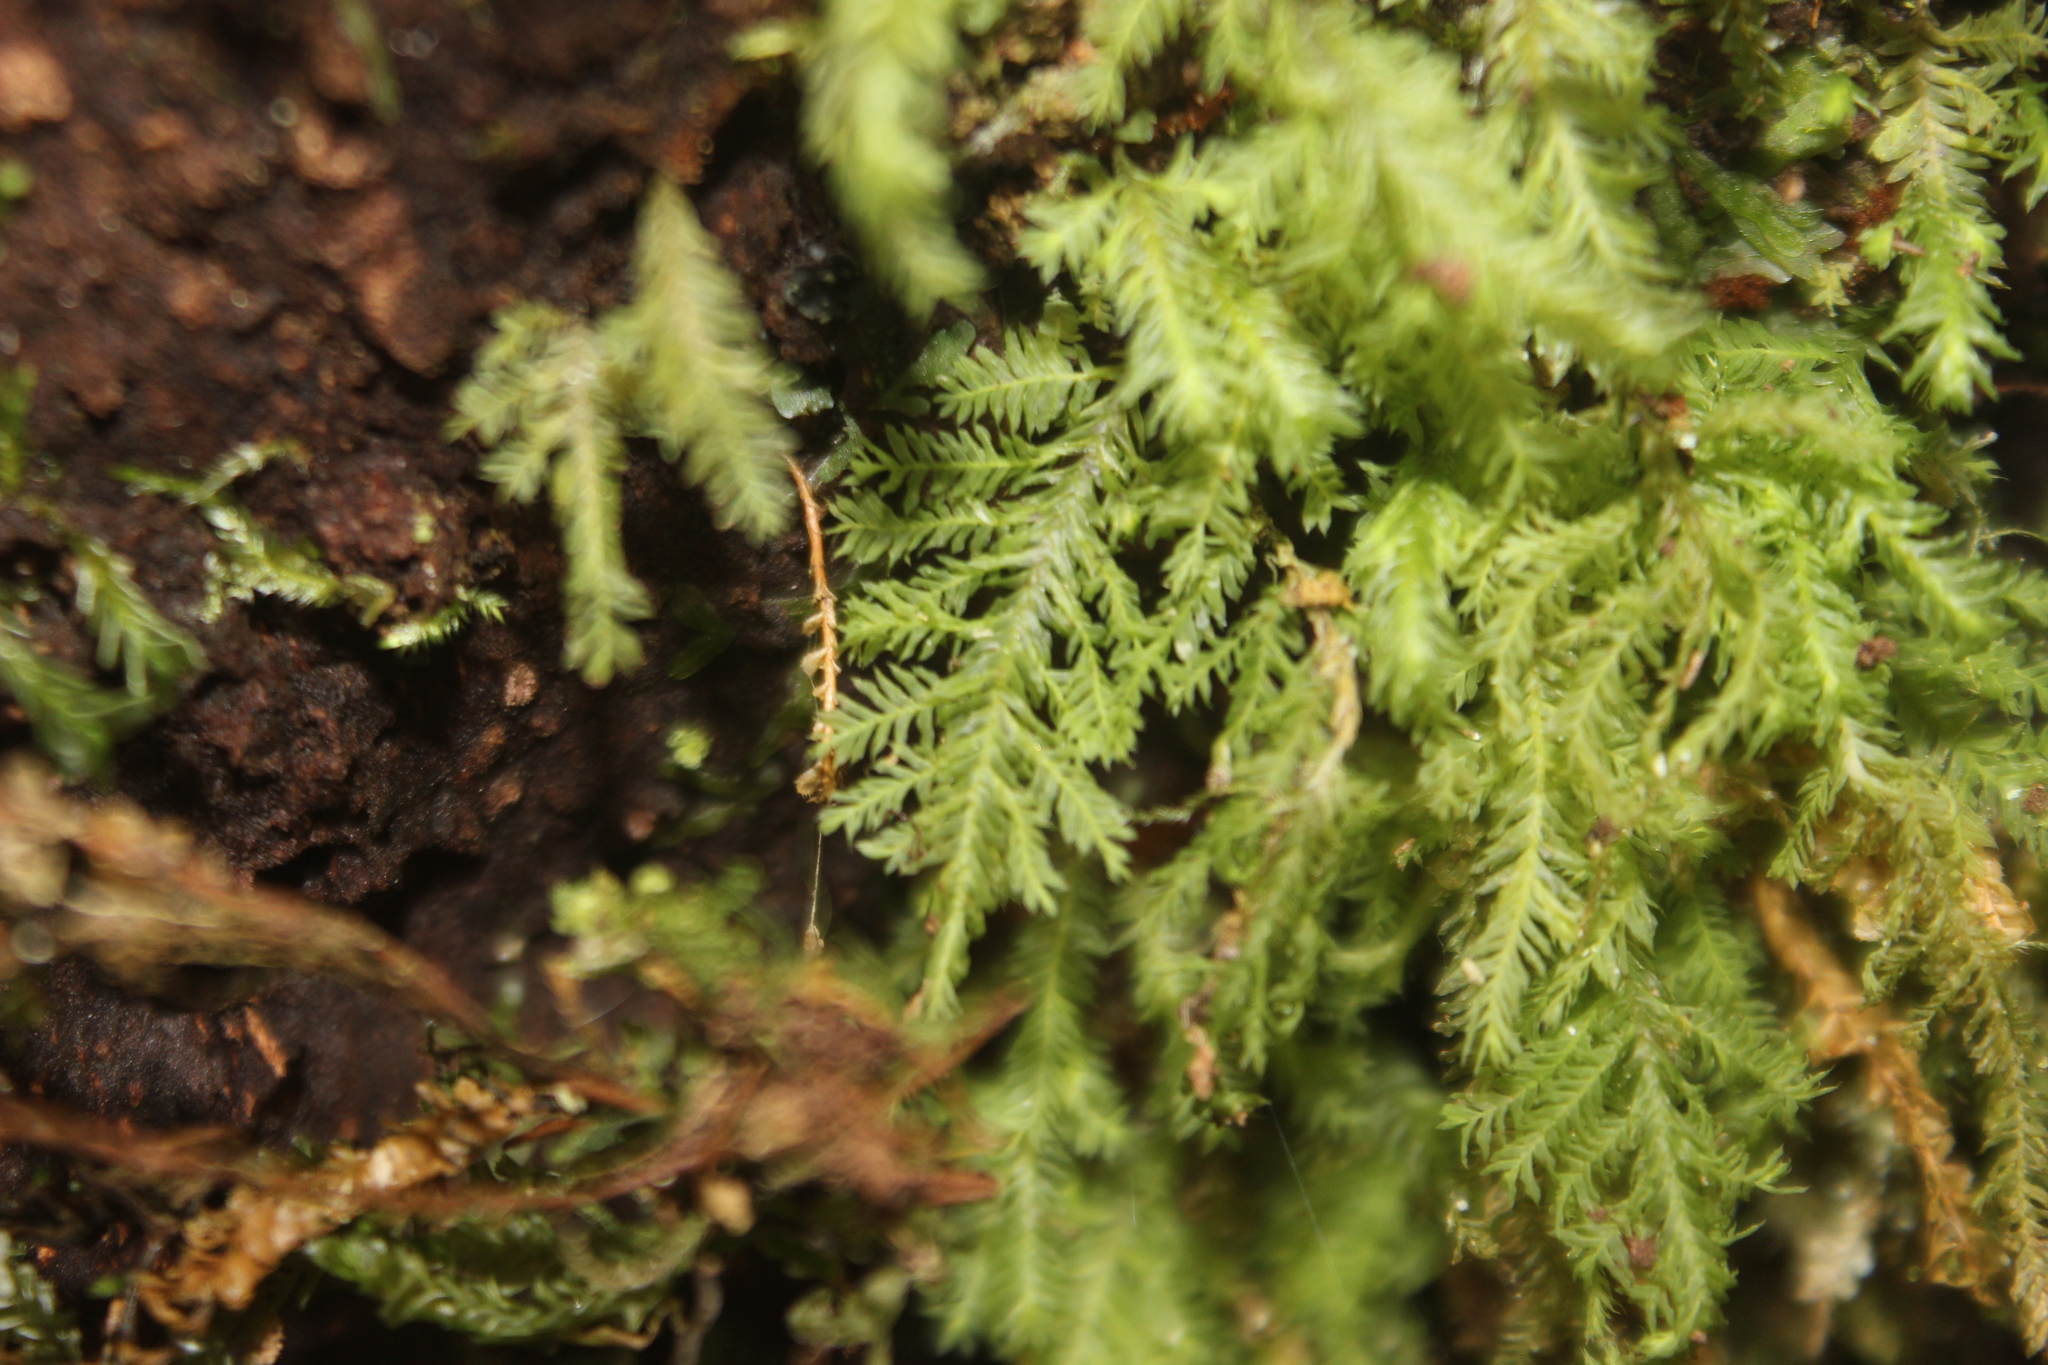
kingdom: Plantae
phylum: Bryophyta
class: Bryopsida
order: Hypopterygiales
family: Hypopterygiaceae
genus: Lopidium
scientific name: Lopidium concinnum
